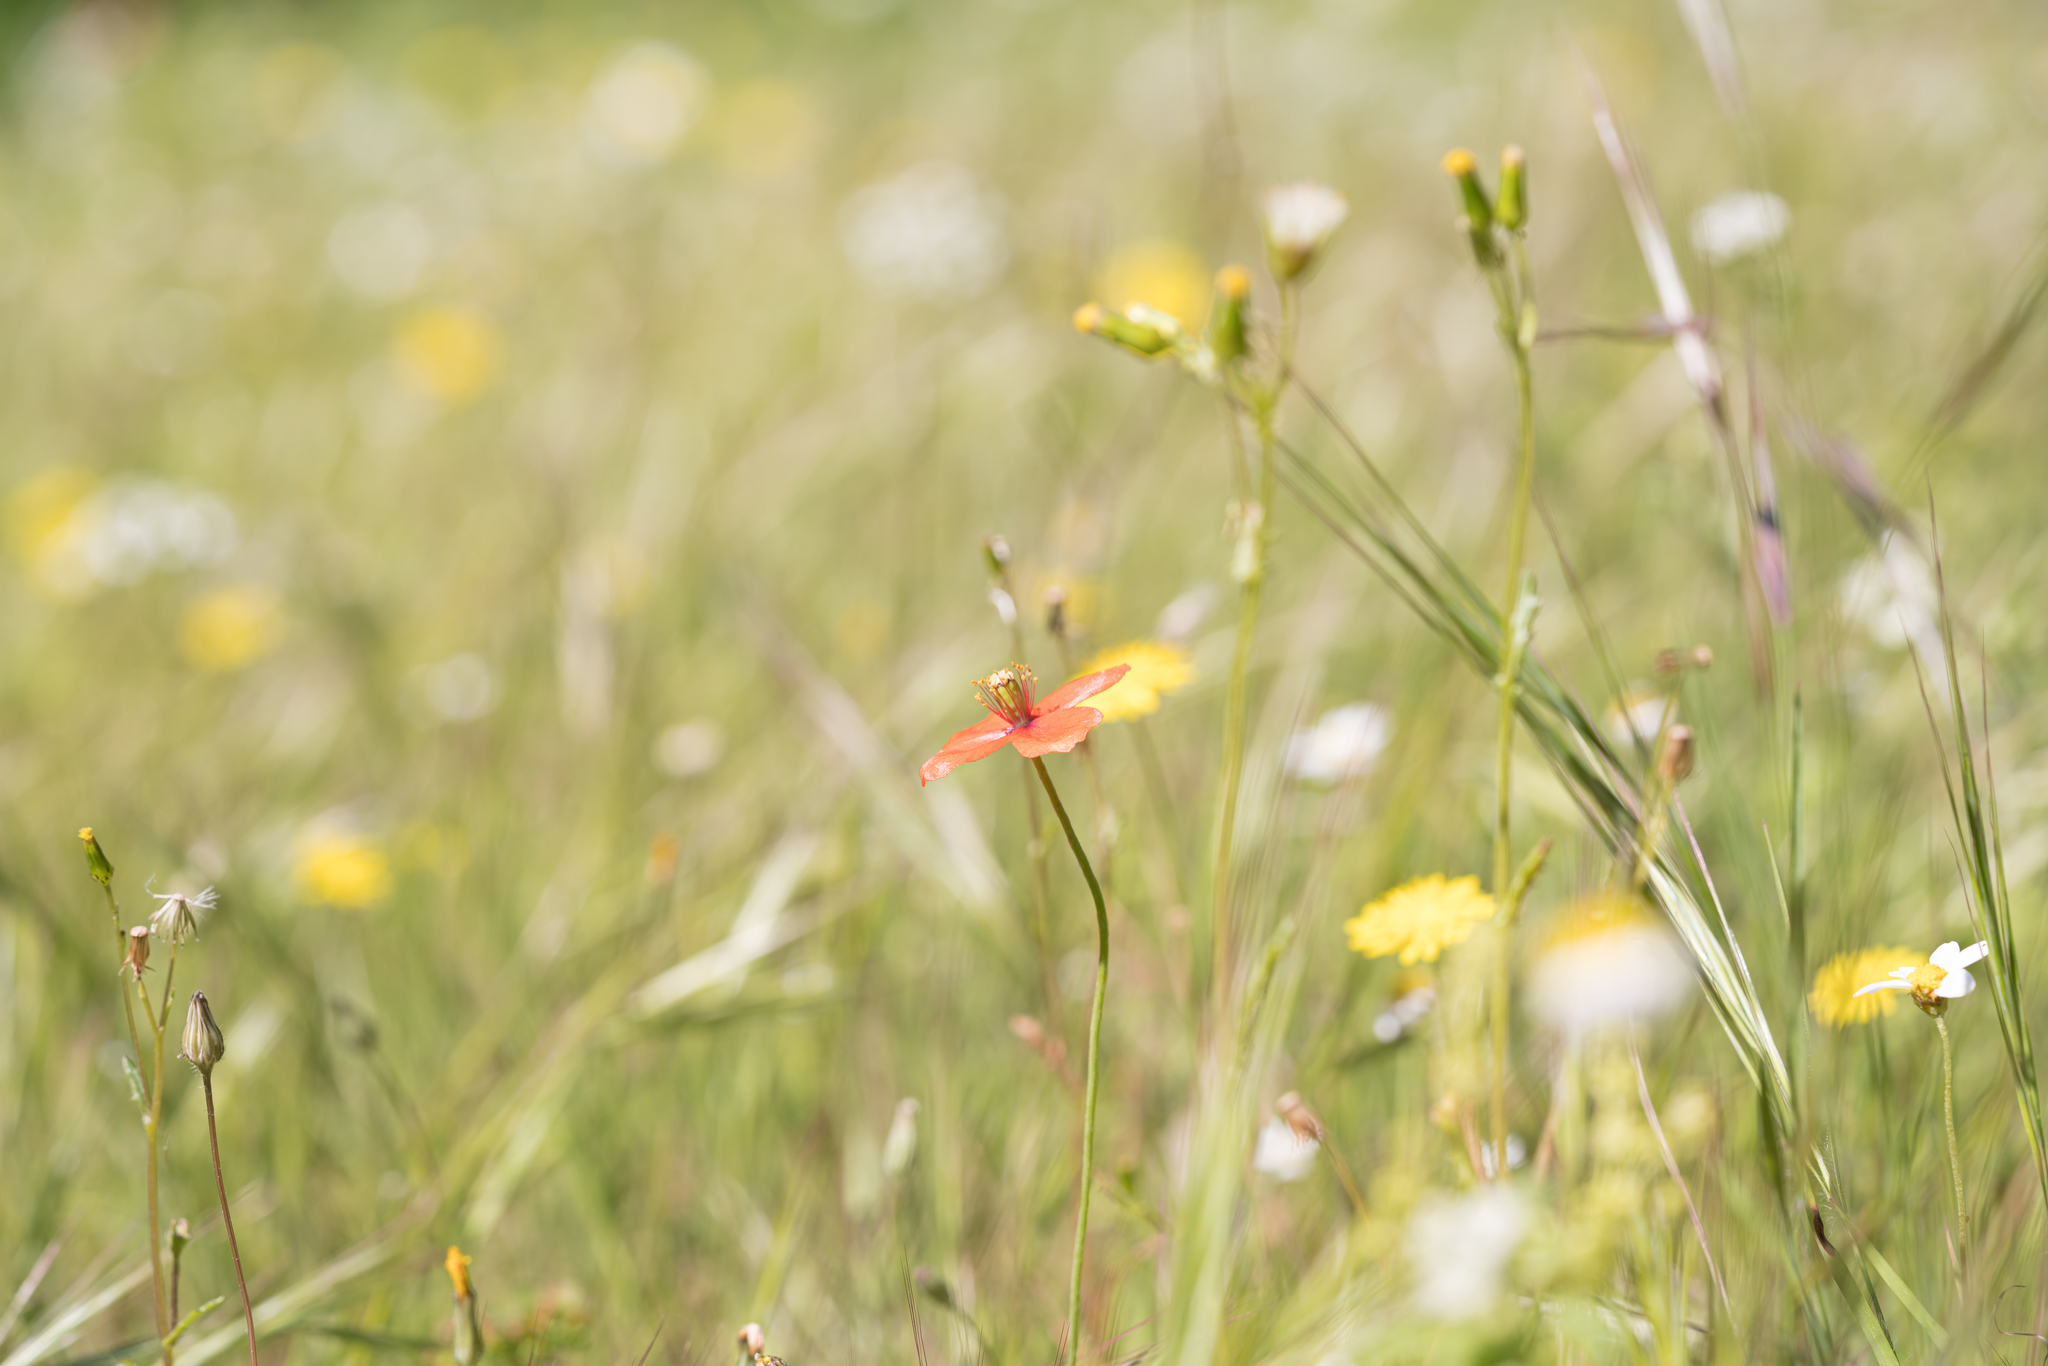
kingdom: Plantae
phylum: Tracheophyta
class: Magnoliopsida
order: Ranunculales
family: Papaveraceae
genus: Papaver
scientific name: Papaver purpureomarginatum
